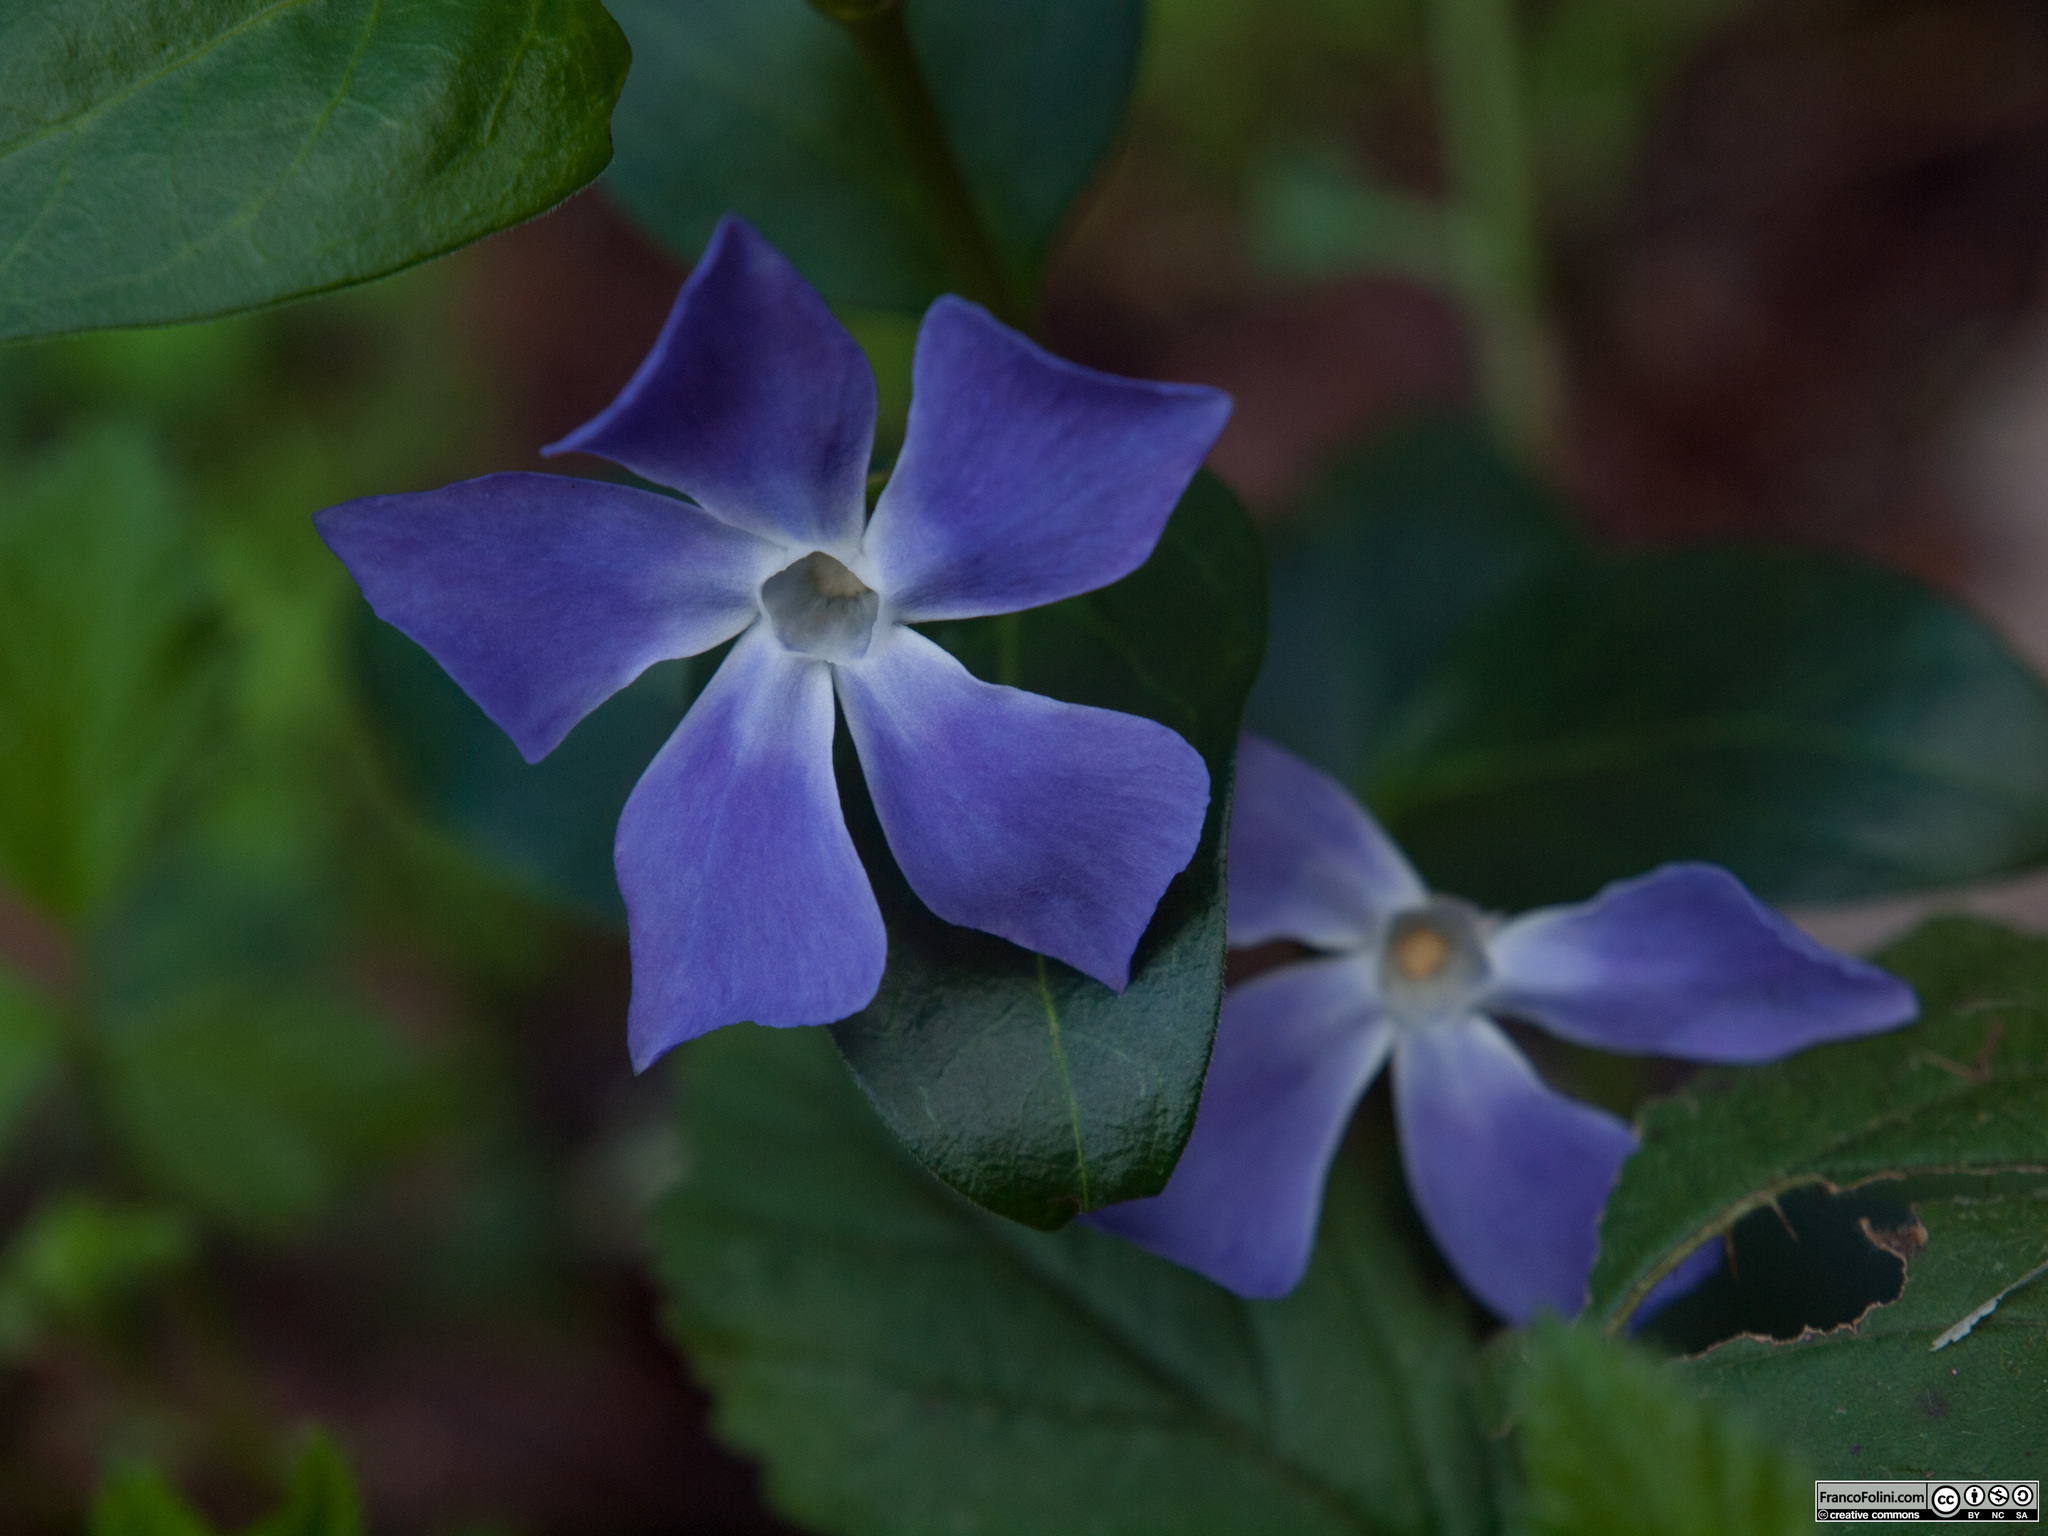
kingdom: Plantae
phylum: Tracheophyta
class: Magnoliopsida
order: Gentianales
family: Apocynaceae
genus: Vinca
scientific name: Vinca major
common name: Greater periwinkle
